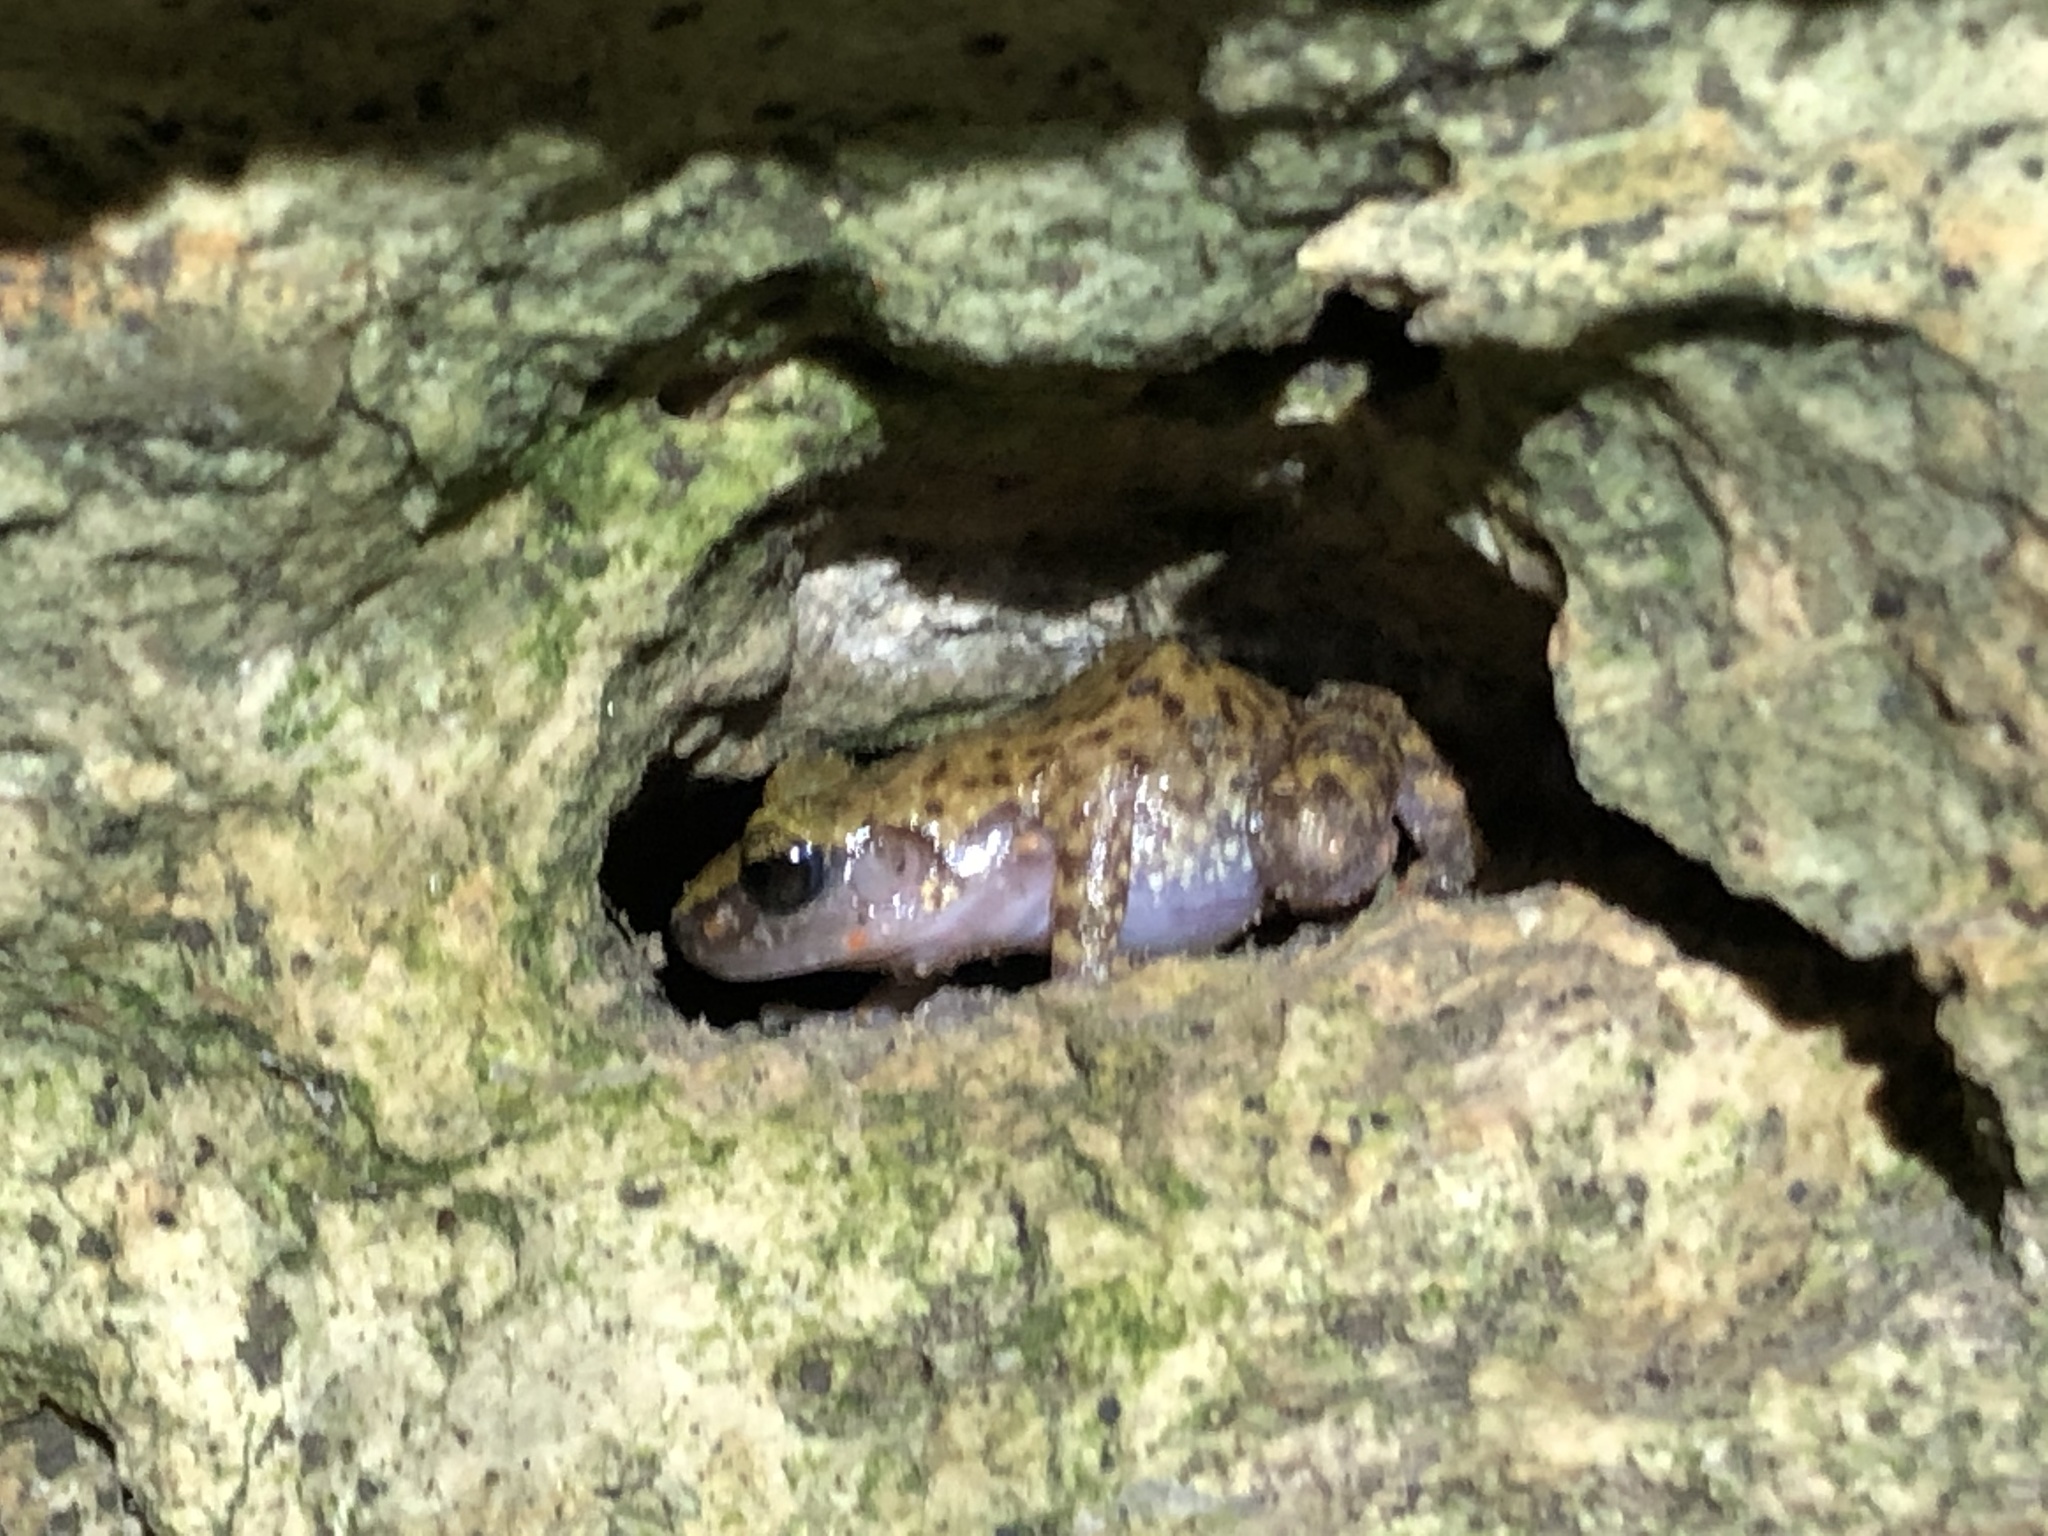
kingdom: Animalia
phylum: Chordata
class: Amphibia
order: Anura
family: Eleutherodactylidae
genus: Eleutherodactylus
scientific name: Eleutherodactylus marnockii
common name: Cliff chirping frog
